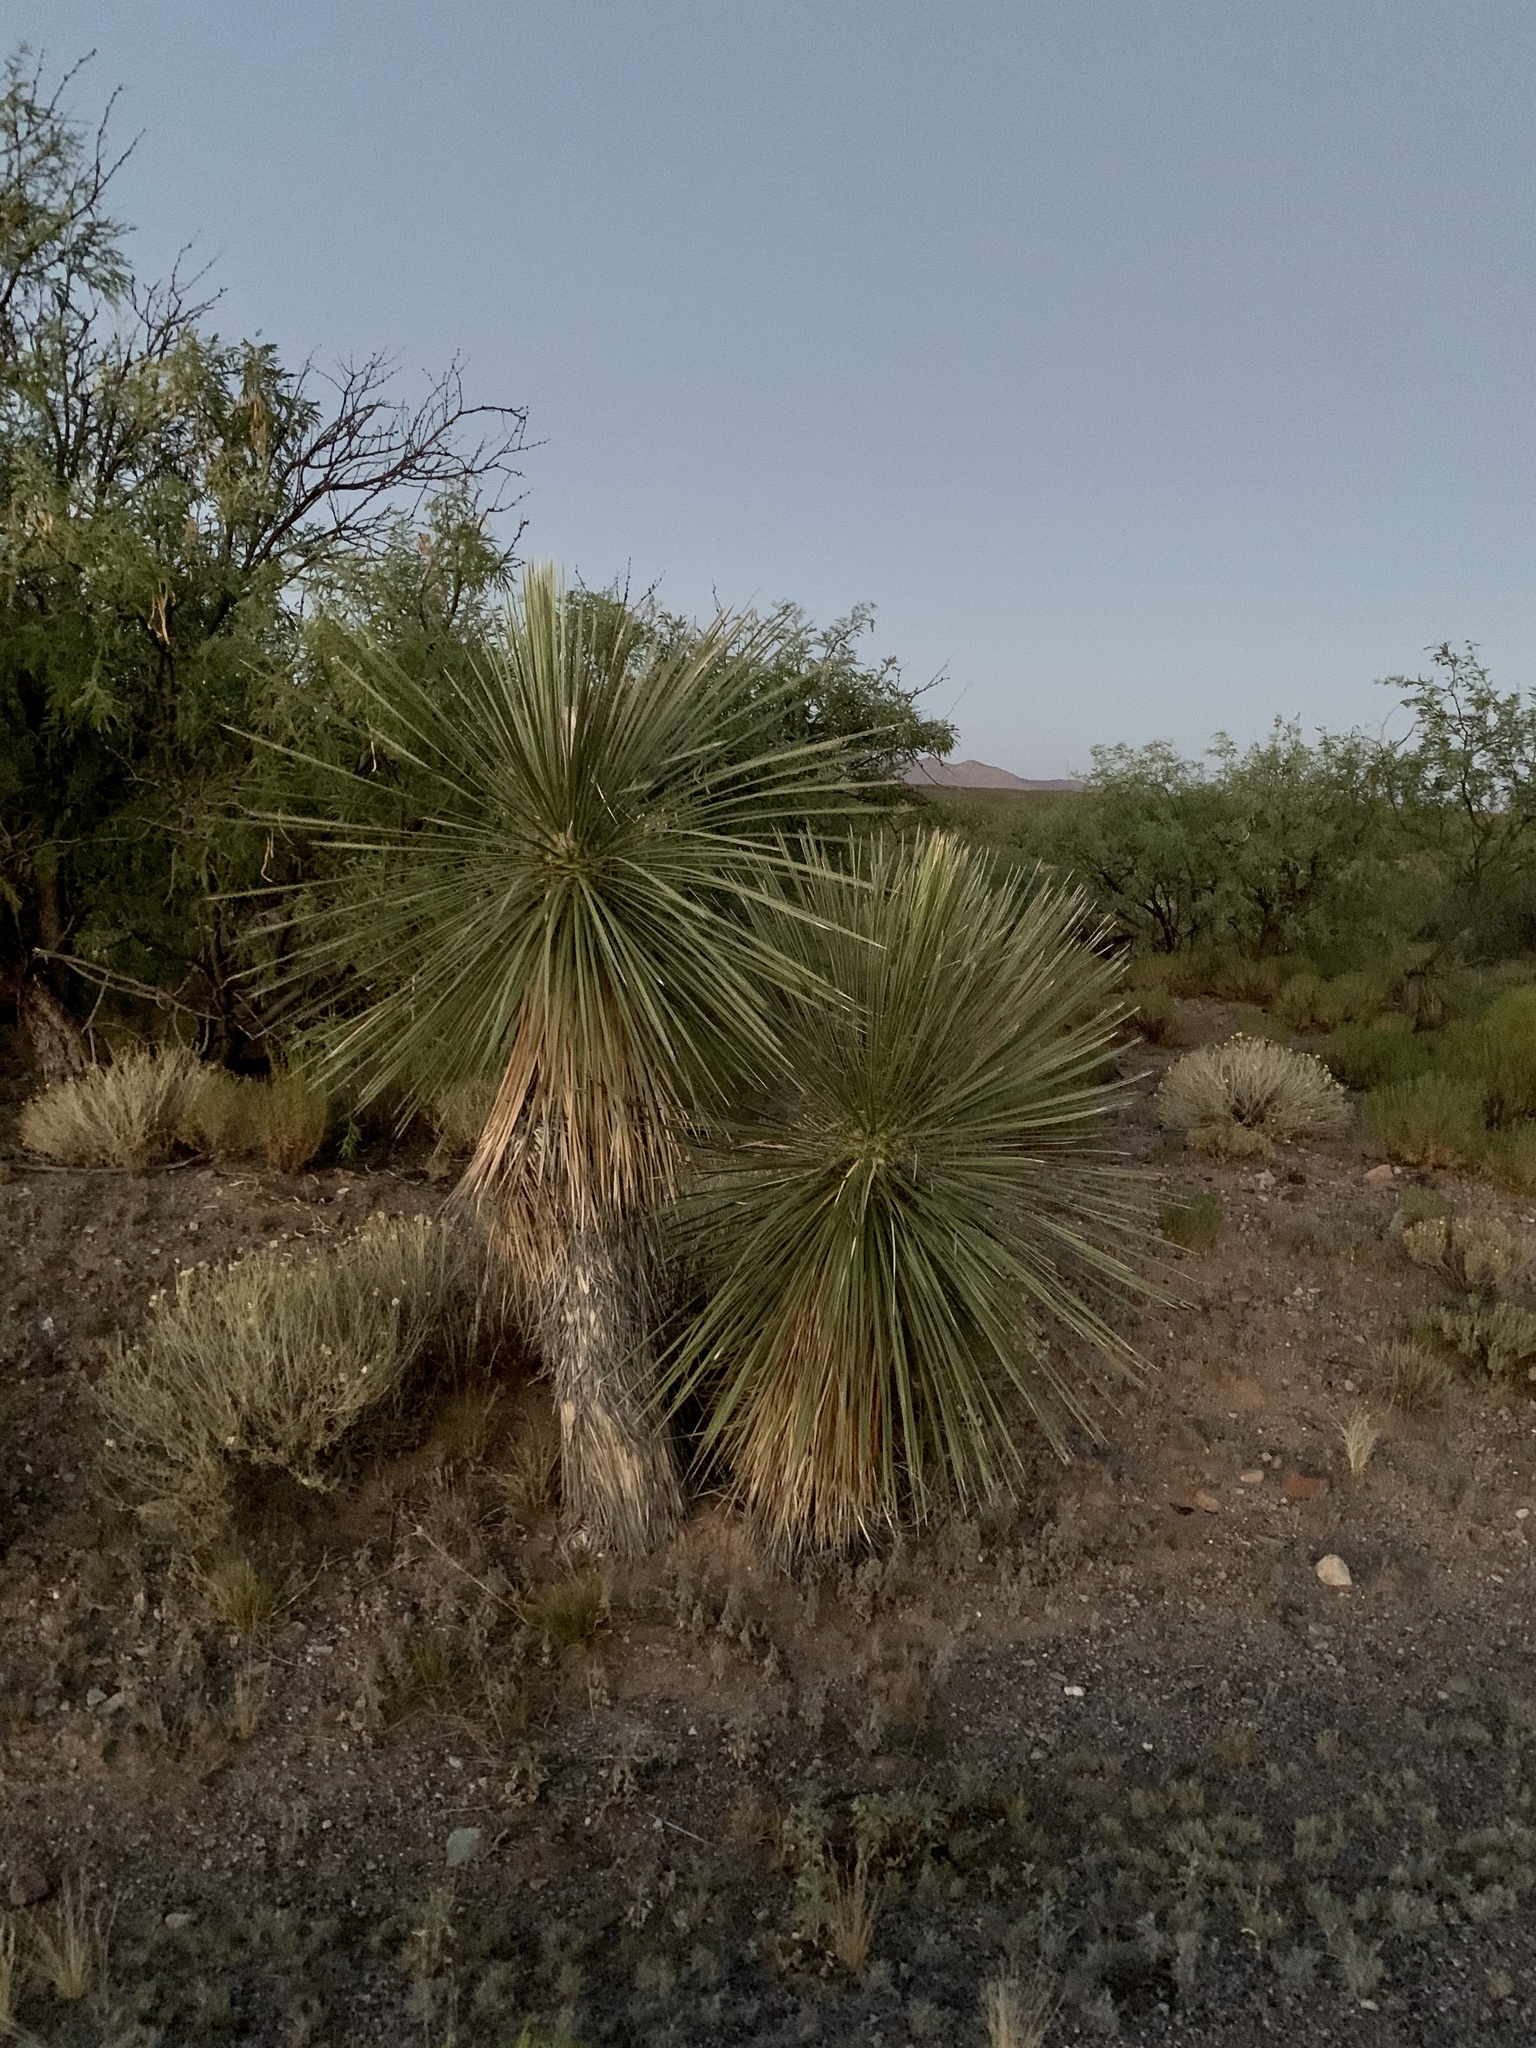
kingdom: Plantae
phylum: Tracheophyta
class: Liliopsida
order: Asparagales
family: Asparagaceae
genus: Yucca
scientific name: Yucca elata
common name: Palmella
